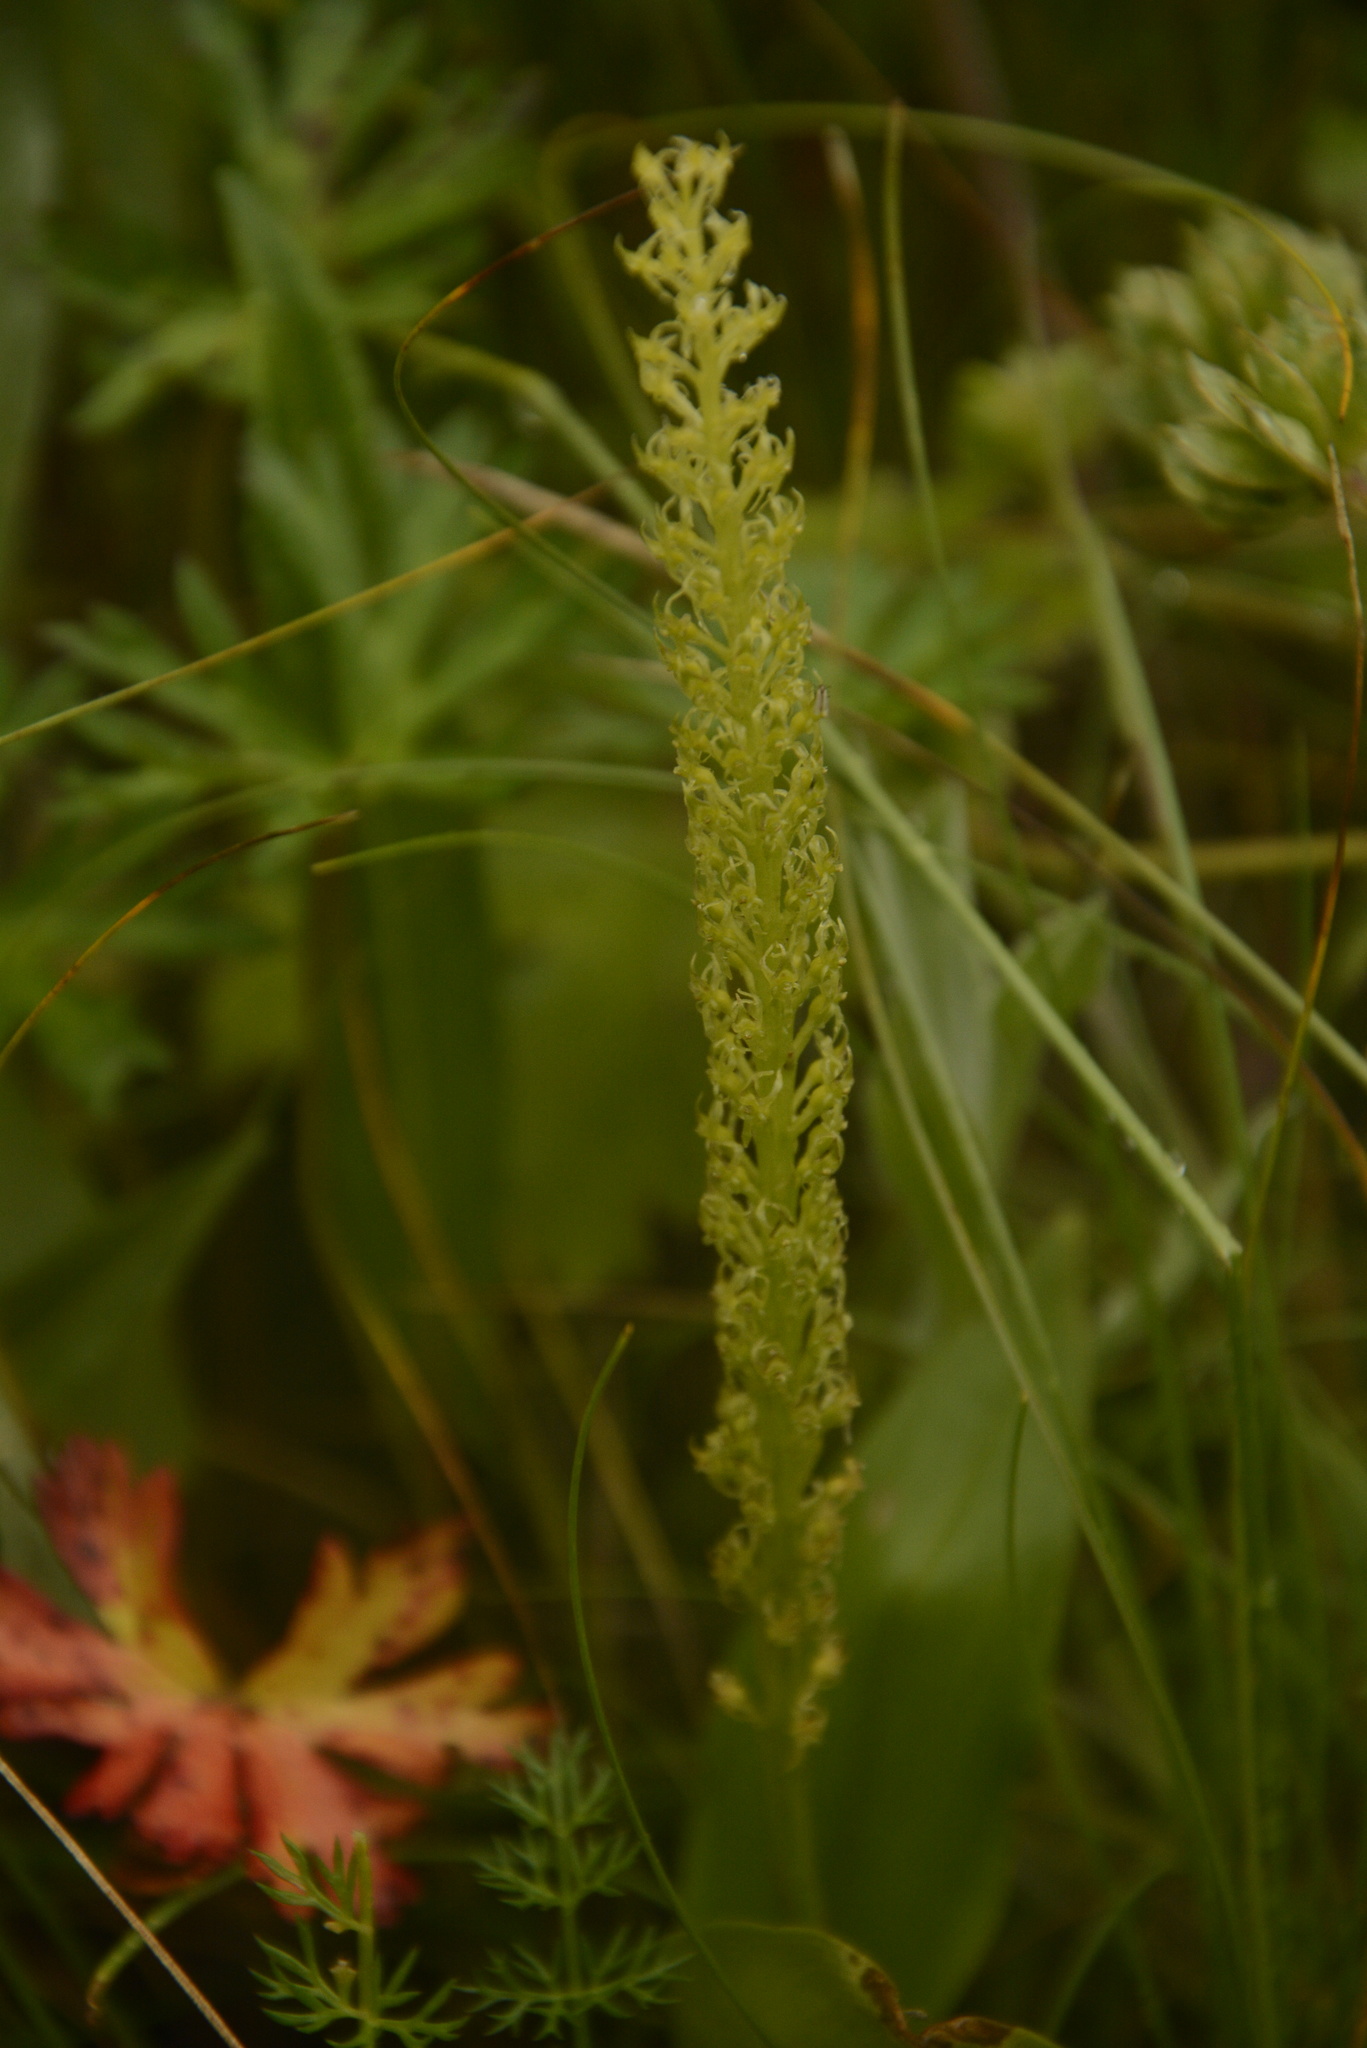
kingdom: Plantae
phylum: Tracheophyta
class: Liliopsida
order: Asparagales
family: Orchidaceae
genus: Malaxis
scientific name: Malaxis muscifera
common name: Adder-mouth orchid
